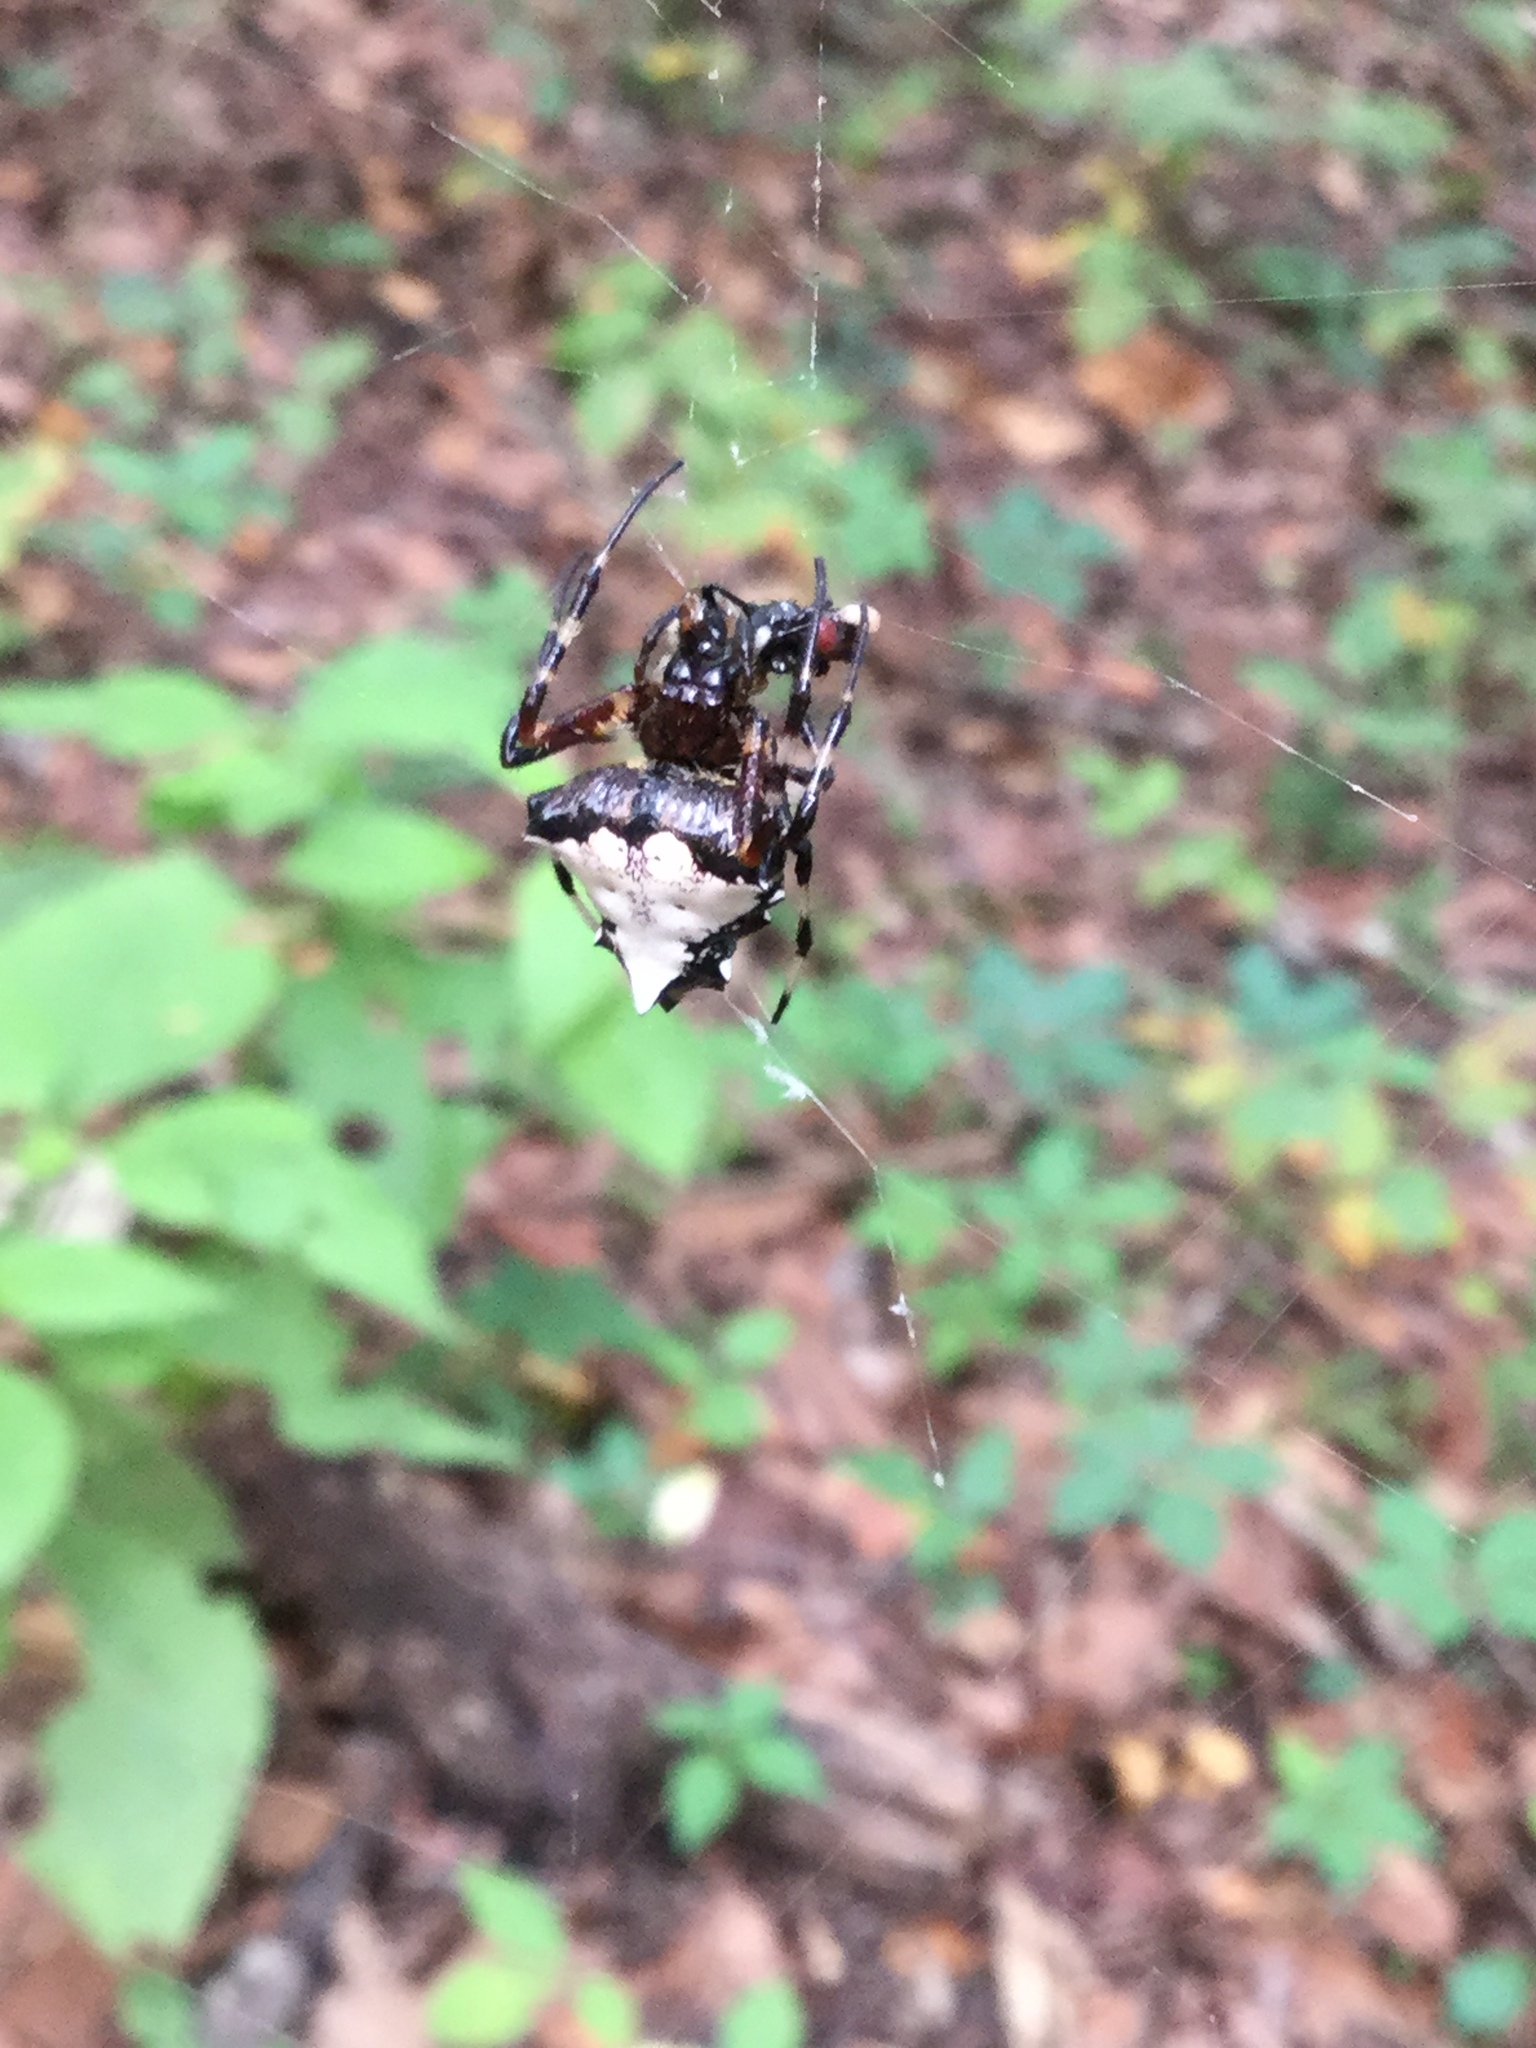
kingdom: Animalia
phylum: Arthropoda
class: Arachnida
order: Araneae
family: Araneidae
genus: Verrucosa
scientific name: Verrucosa arenata
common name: Orb weavers
